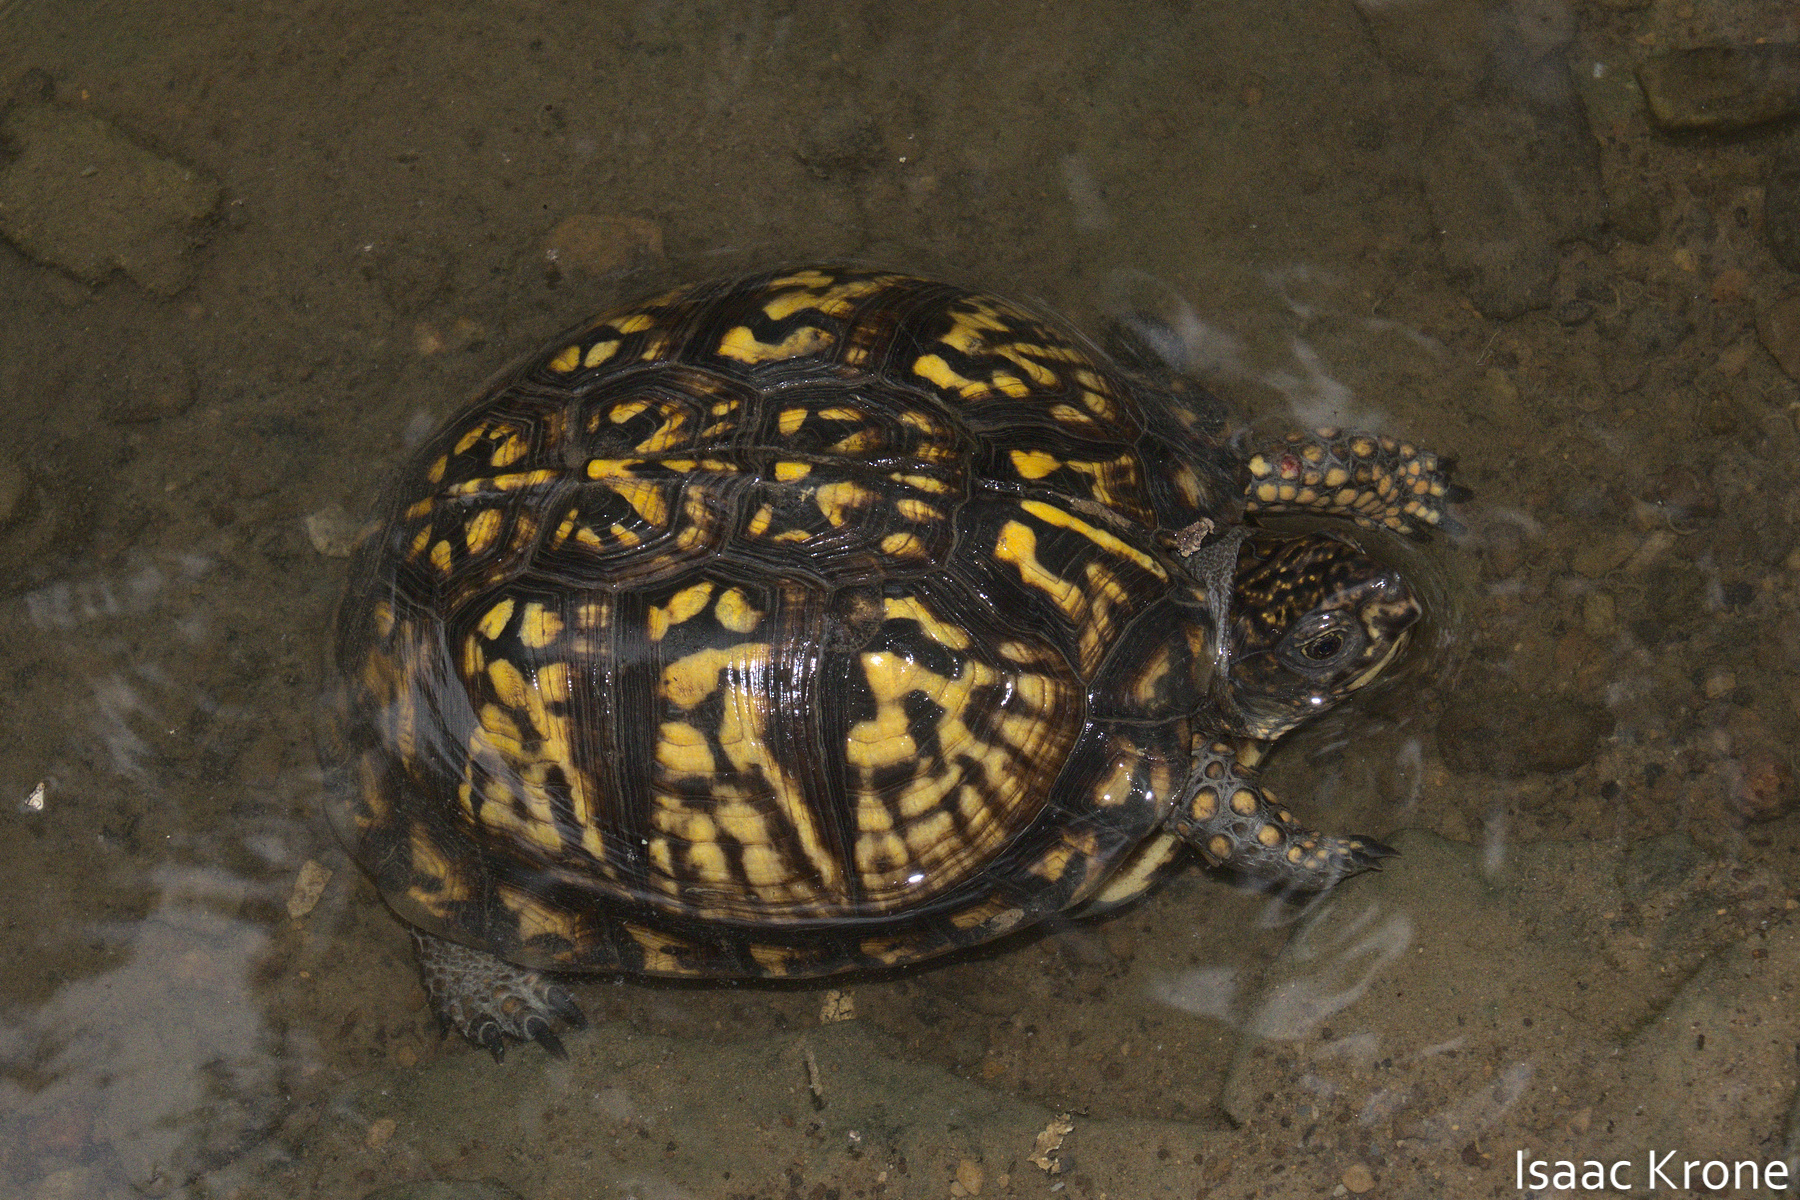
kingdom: Animalia
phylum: Chordata
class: Testudines
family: Emydidae
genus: Terrapene
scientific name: Terrapene carolina
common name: Common box turtle
